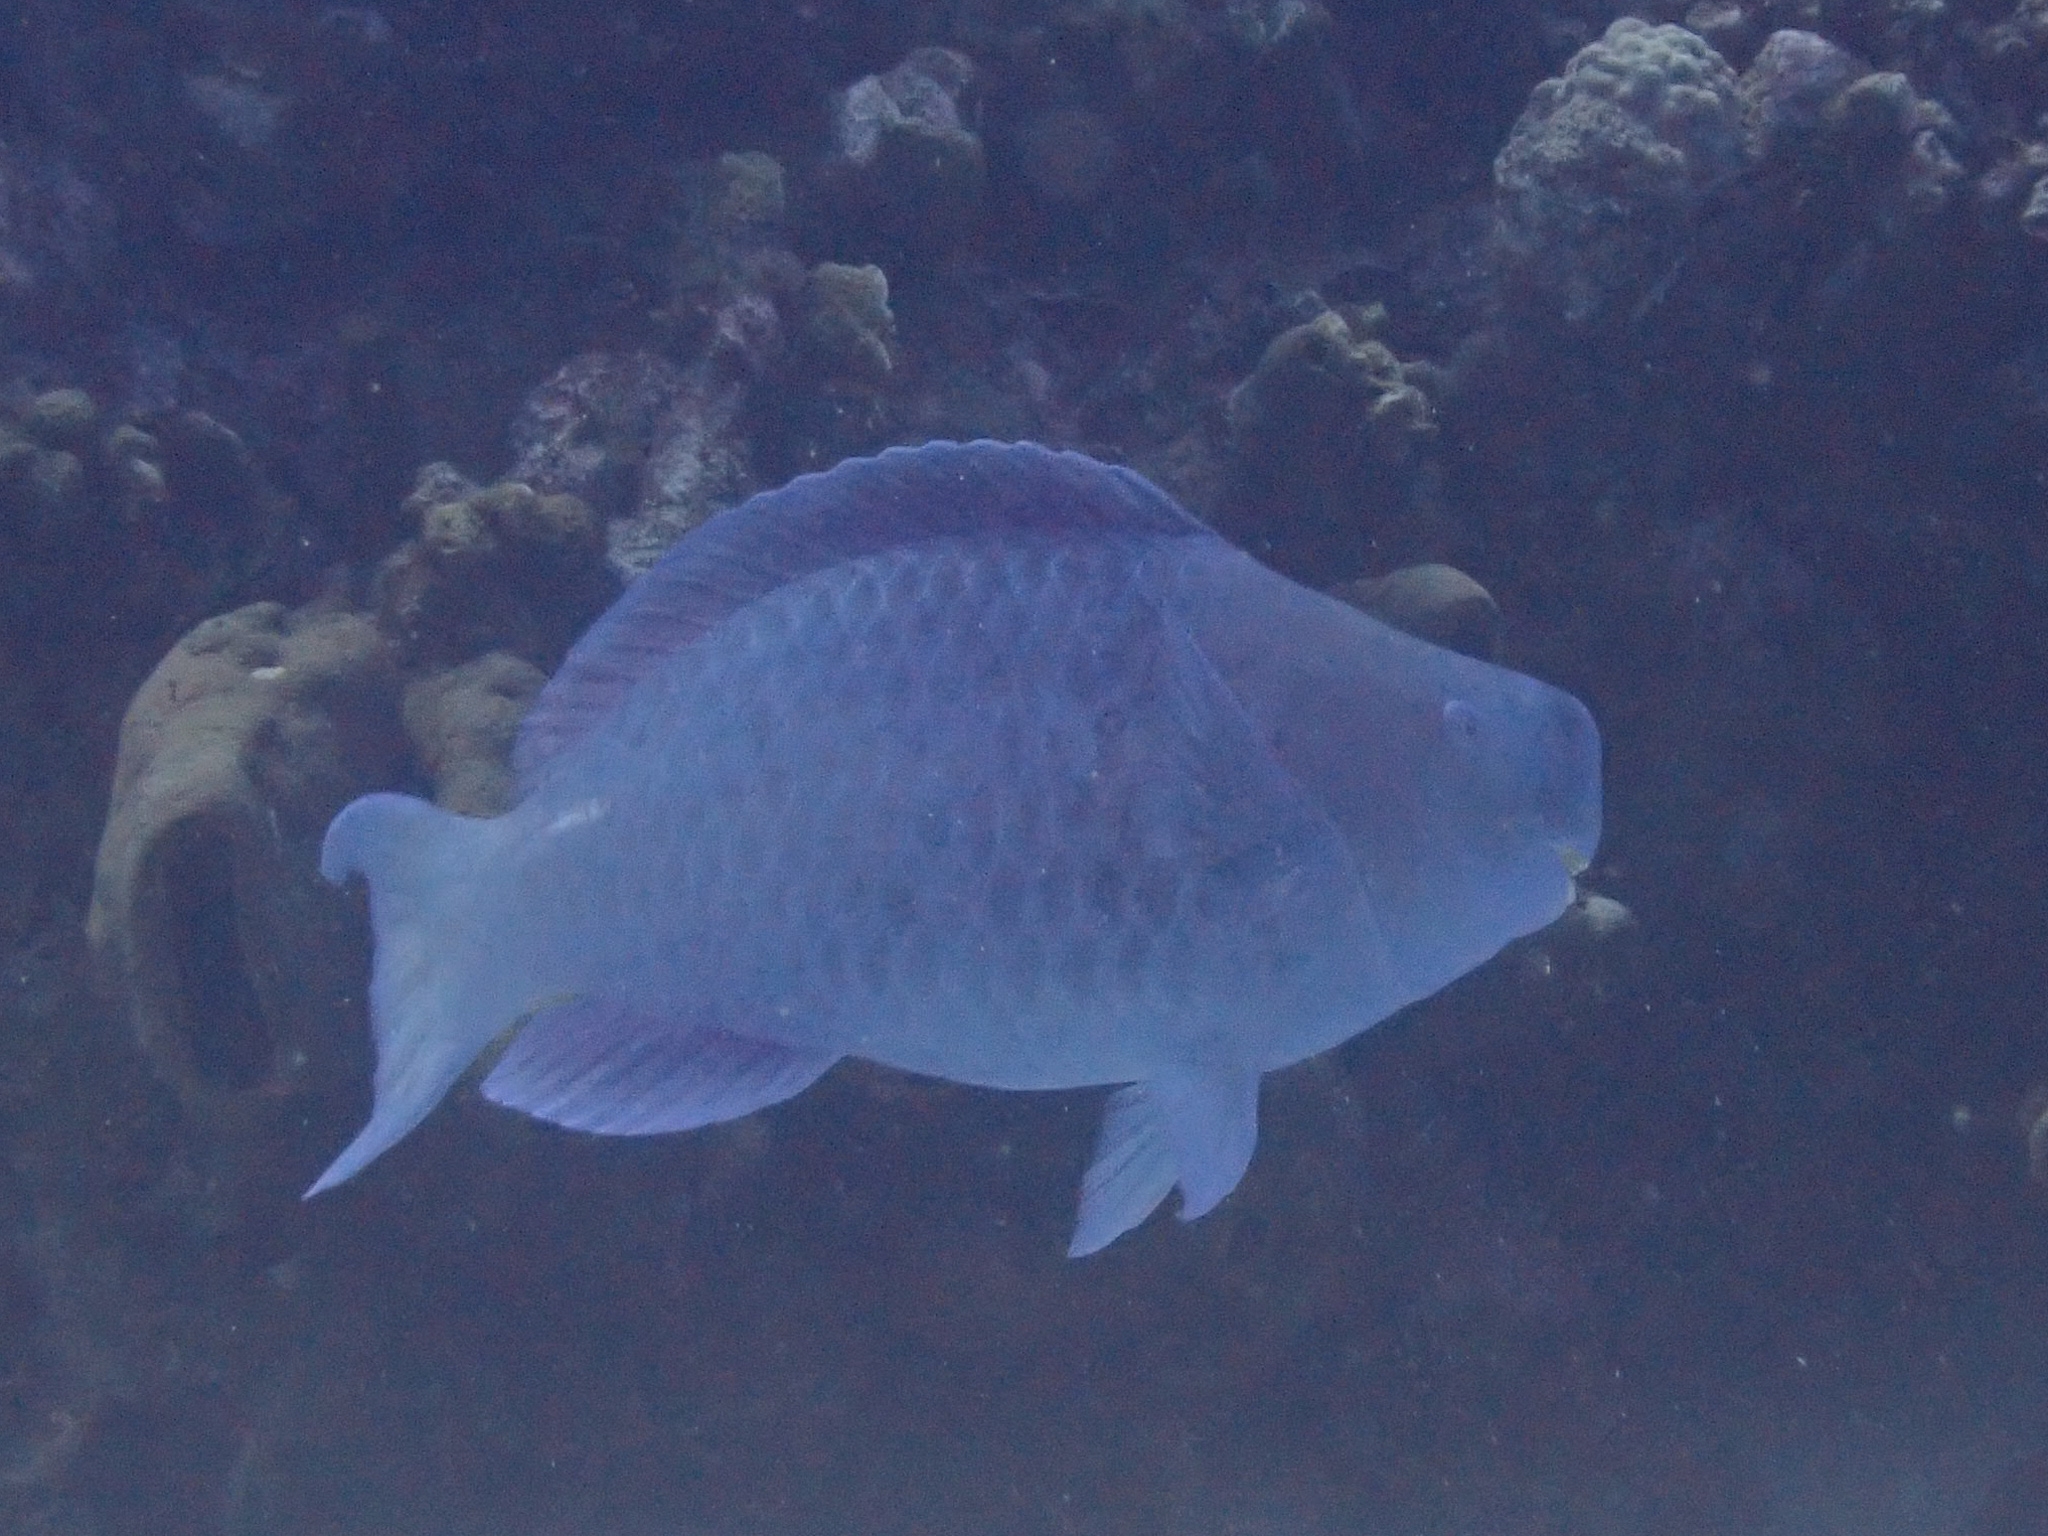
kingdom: Animalia
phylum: Chordata
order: Perciformes
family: Scaridae
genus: Scarus
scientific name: Scarus coeruleus
